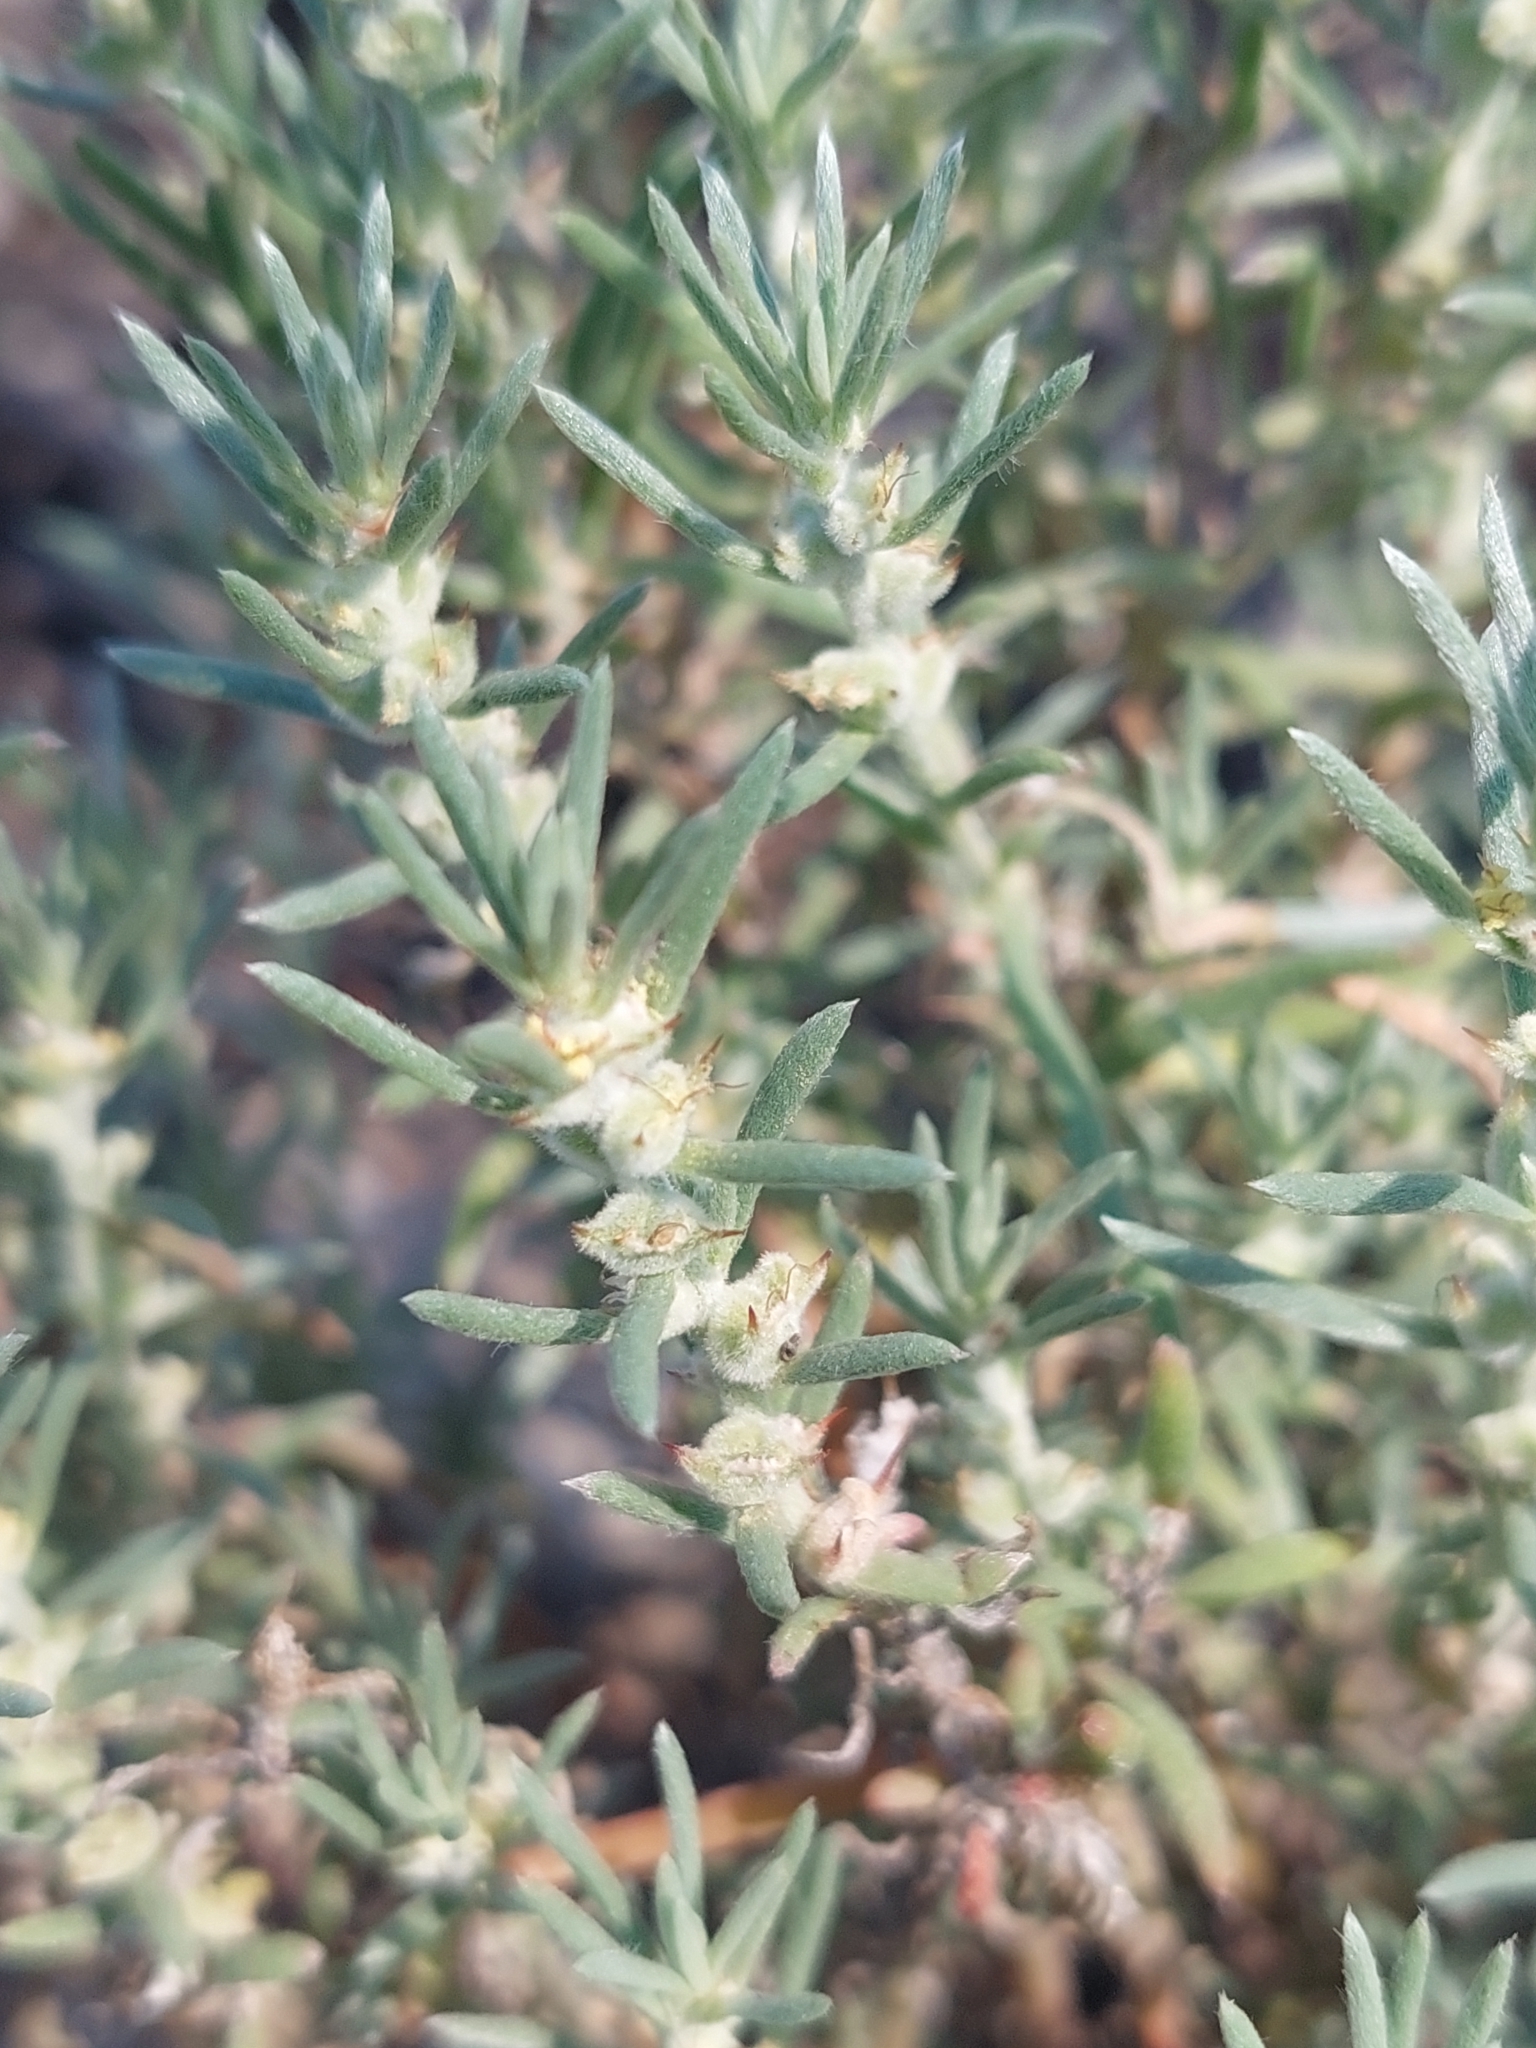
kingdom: Plantae
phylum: Tracheophyta
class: Magnoliopsida
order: Caryophyllales
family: Amaranthaceae
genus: Sclerolaena
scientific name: Sclerolaena diacantha
